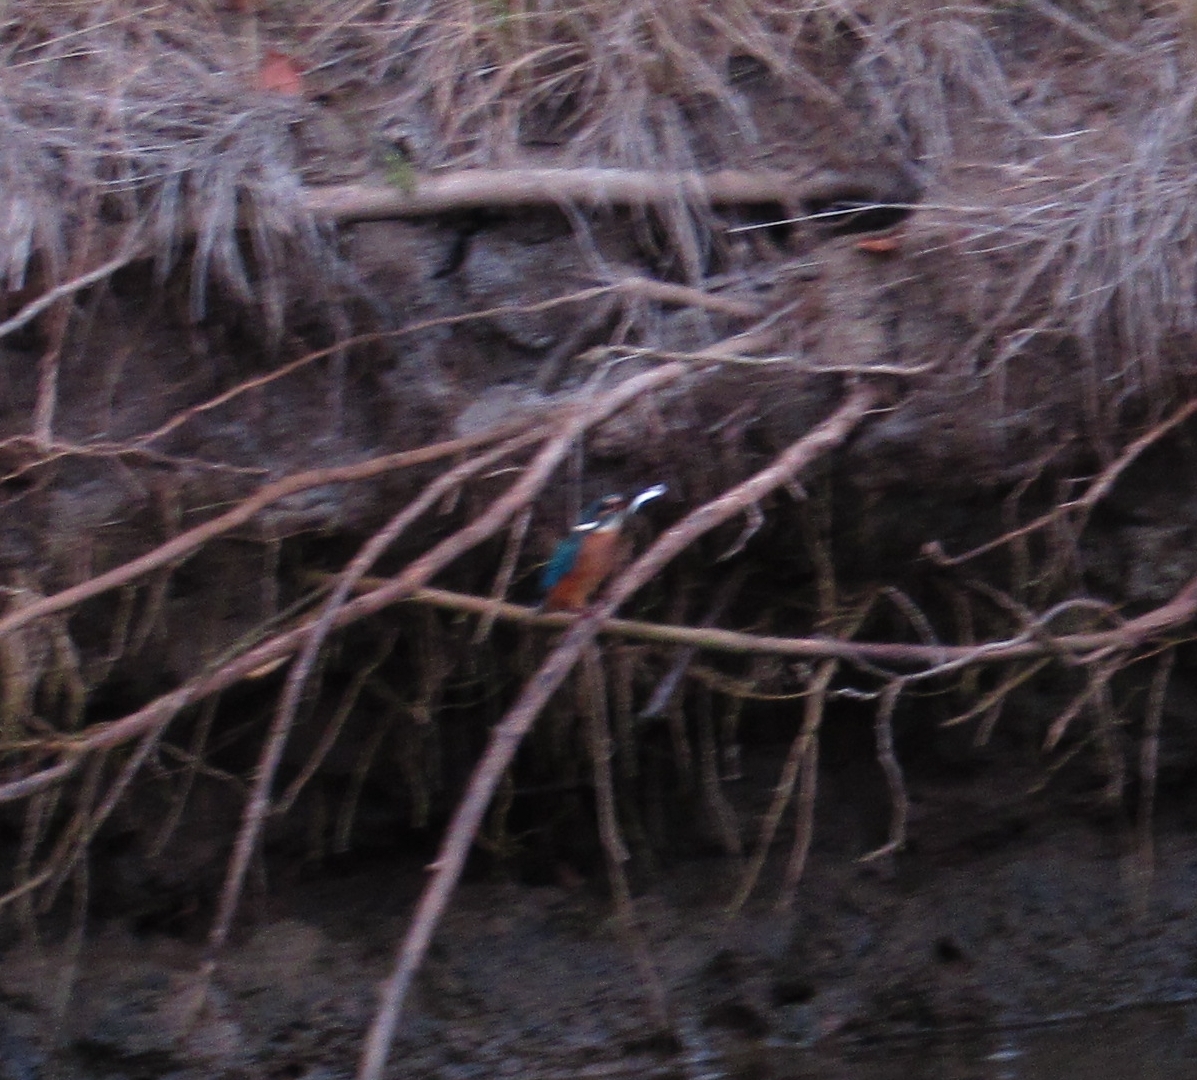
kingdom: Animalia
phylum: Chordata
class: Aves
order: Coraciiformes
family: Alcedinidae
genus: Alcedo
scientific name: Alcedo atthis
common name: Common kingfisher
